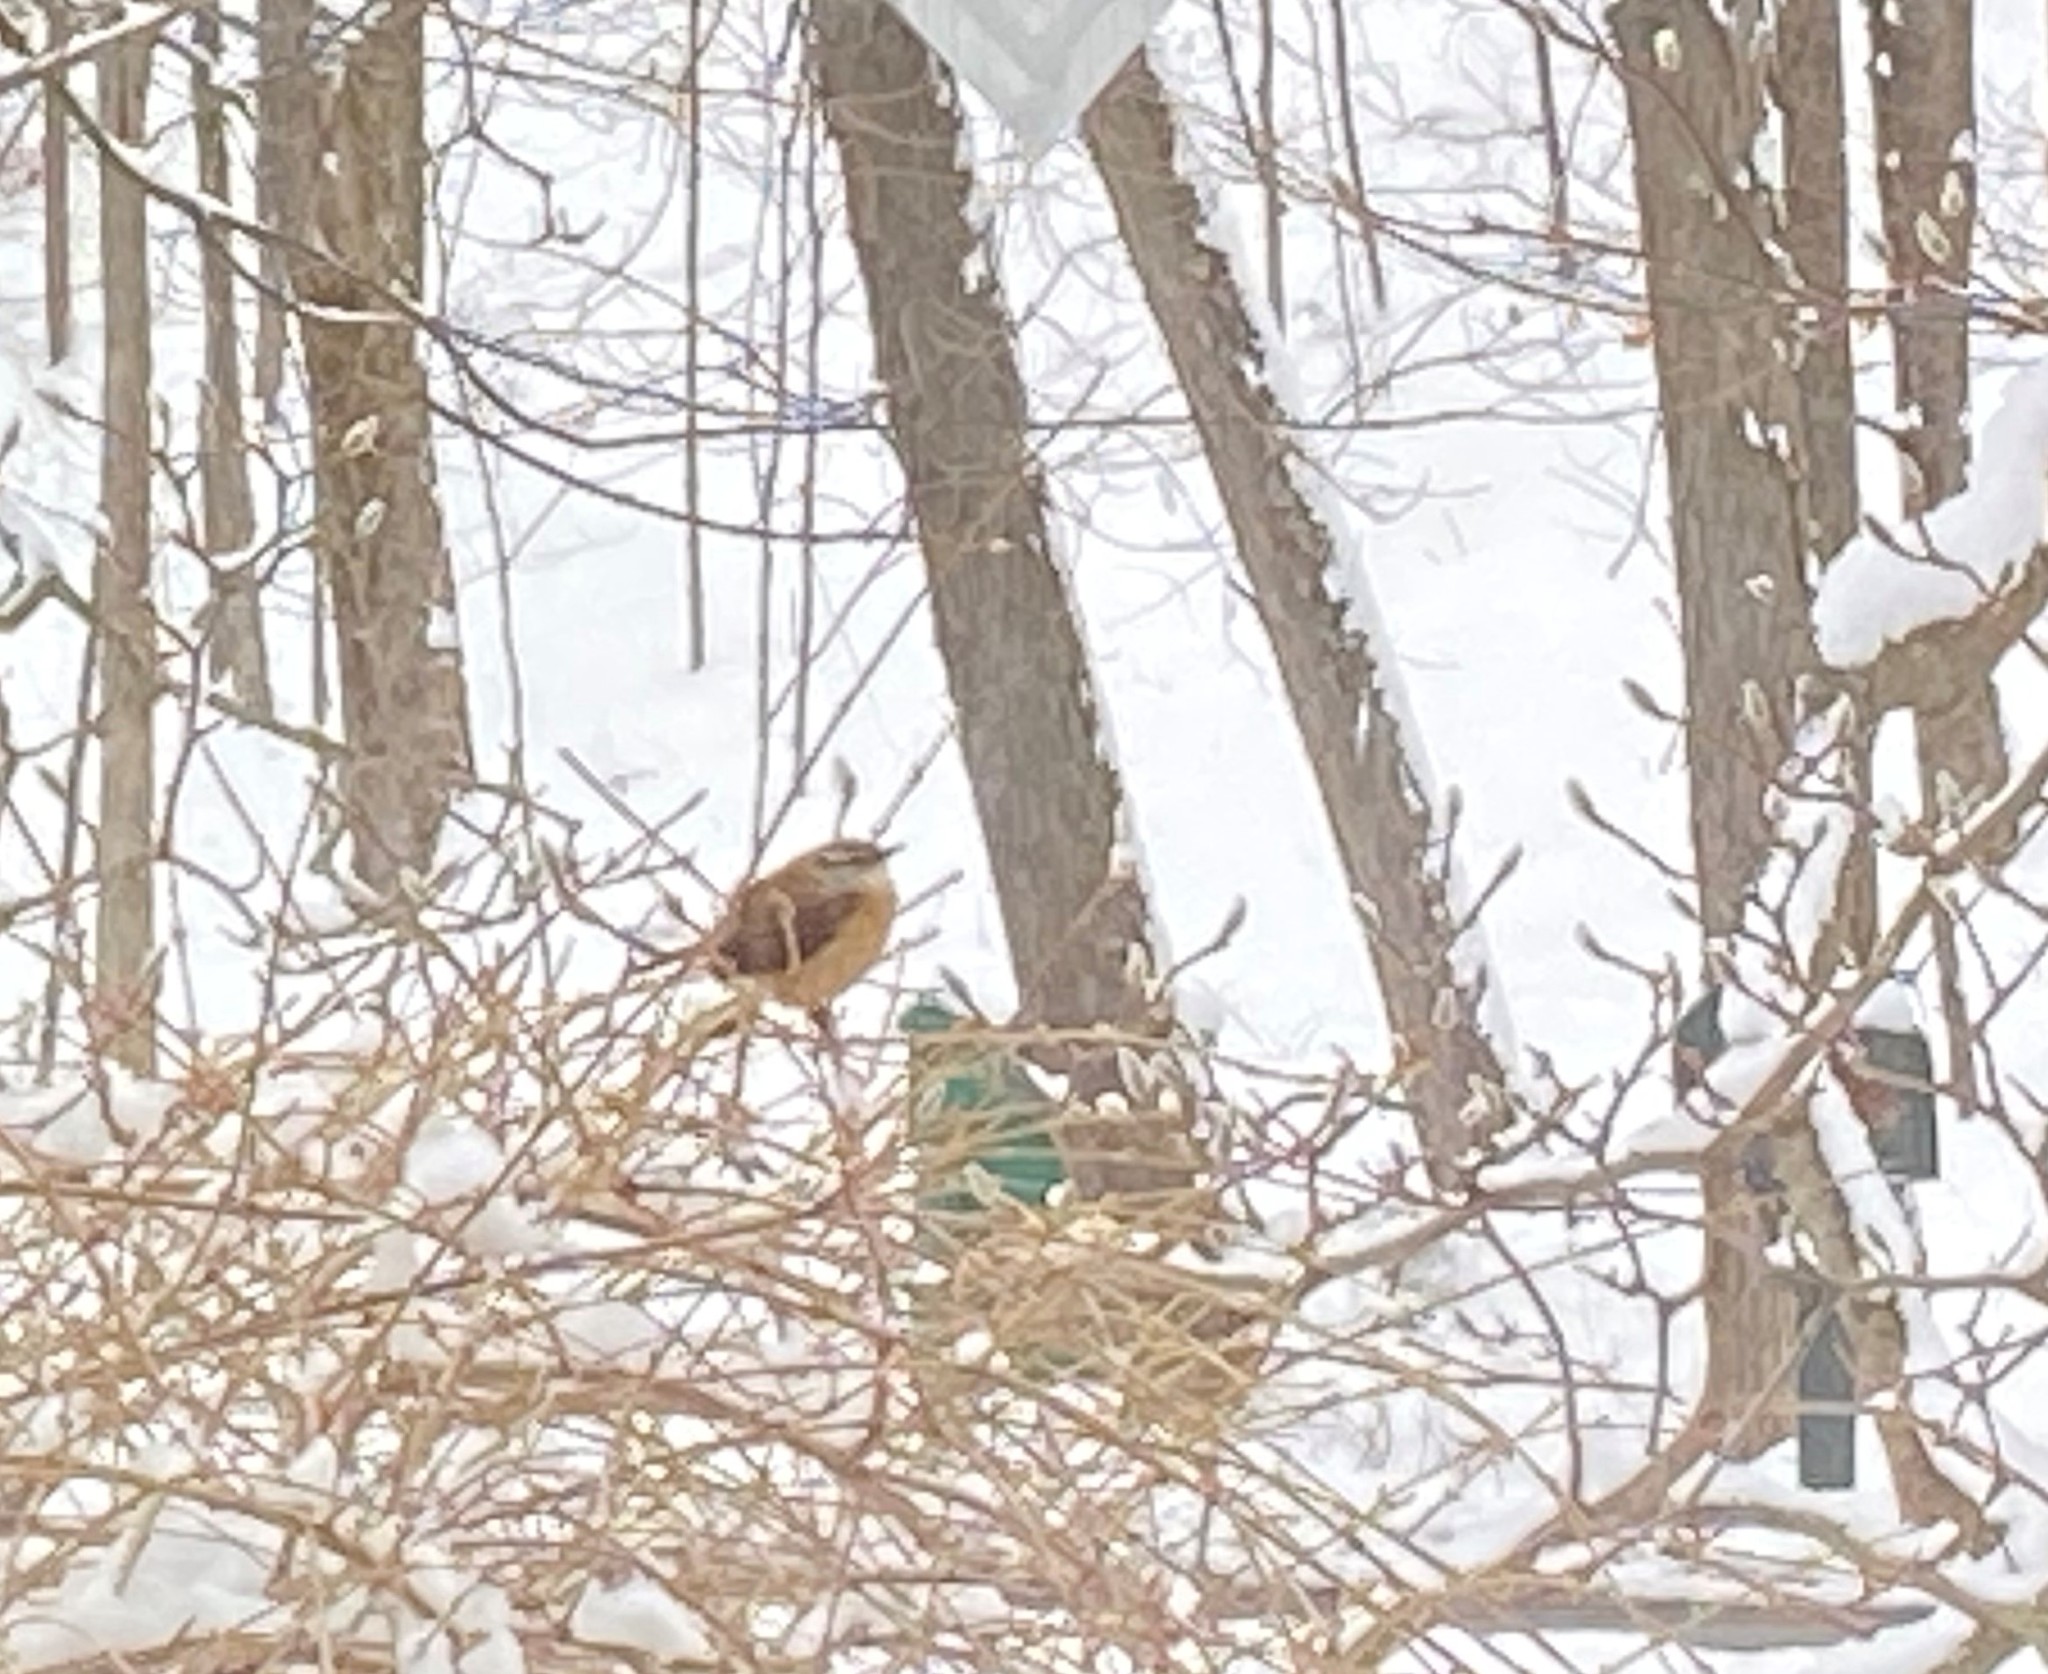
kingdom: Animalia
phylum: Chordata
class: Aves
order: Passeriformes
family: Troglodytidae
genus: Thryothorus
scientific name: Thryothorus ludovicianus
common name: Carolina wren
